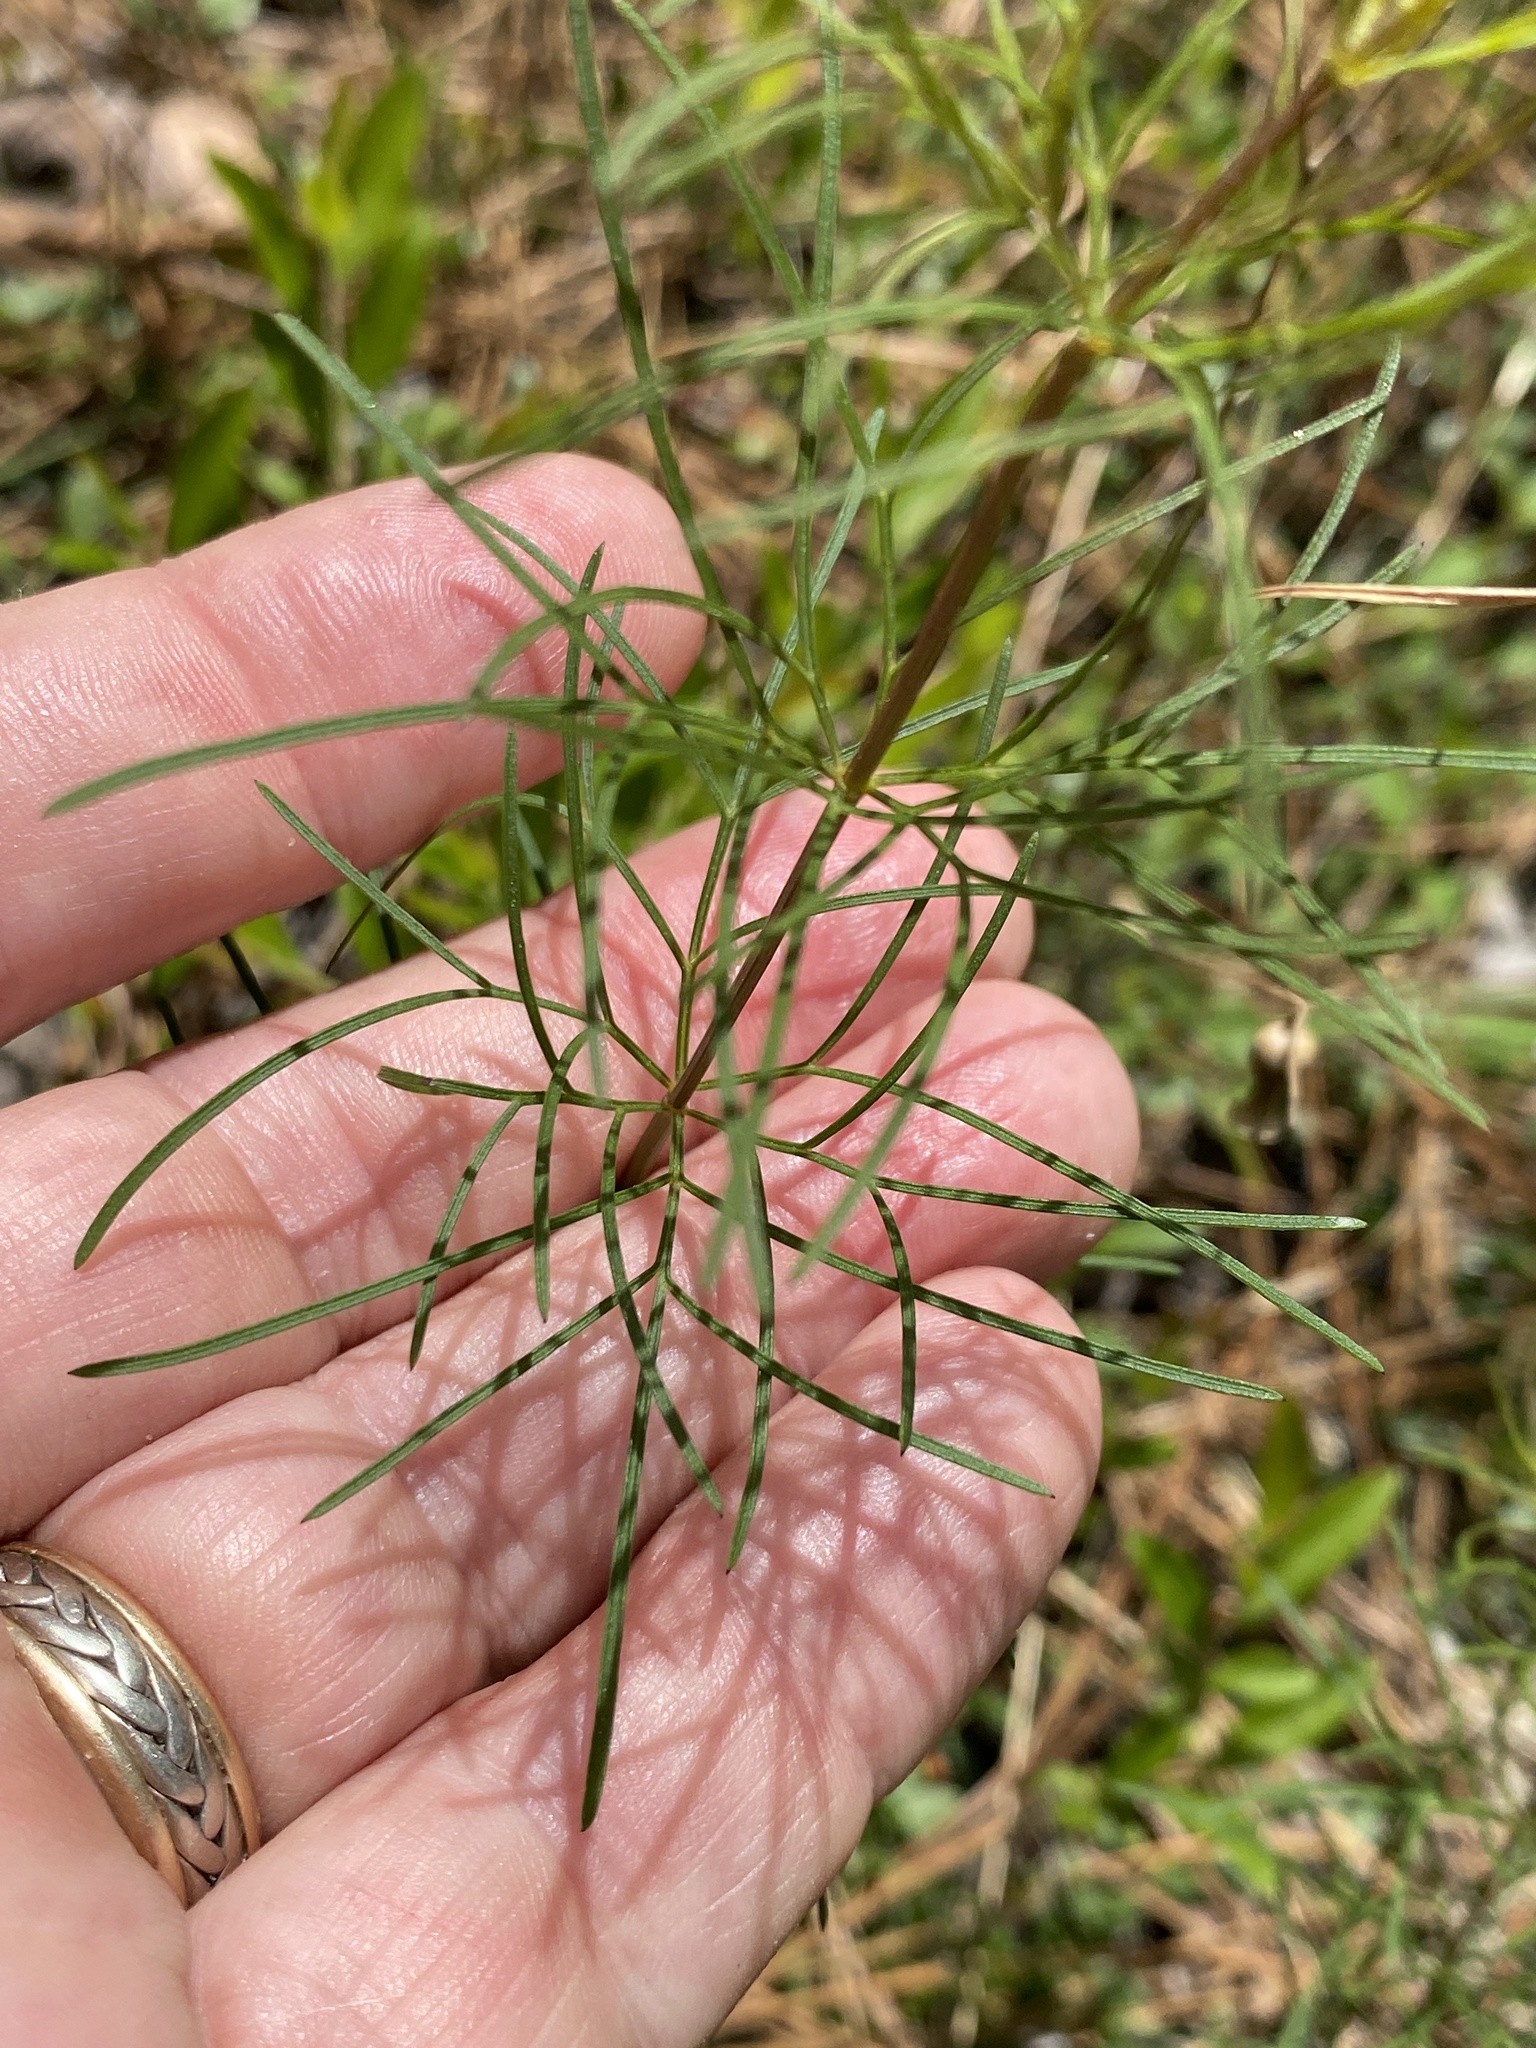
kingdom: Plantae
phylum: Tracheophyta
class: Magnoliopsida
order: Asterales
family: Asteraceae
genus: Coreopsis
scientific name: Coreopsis verticillata
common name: Whorled tickseed
